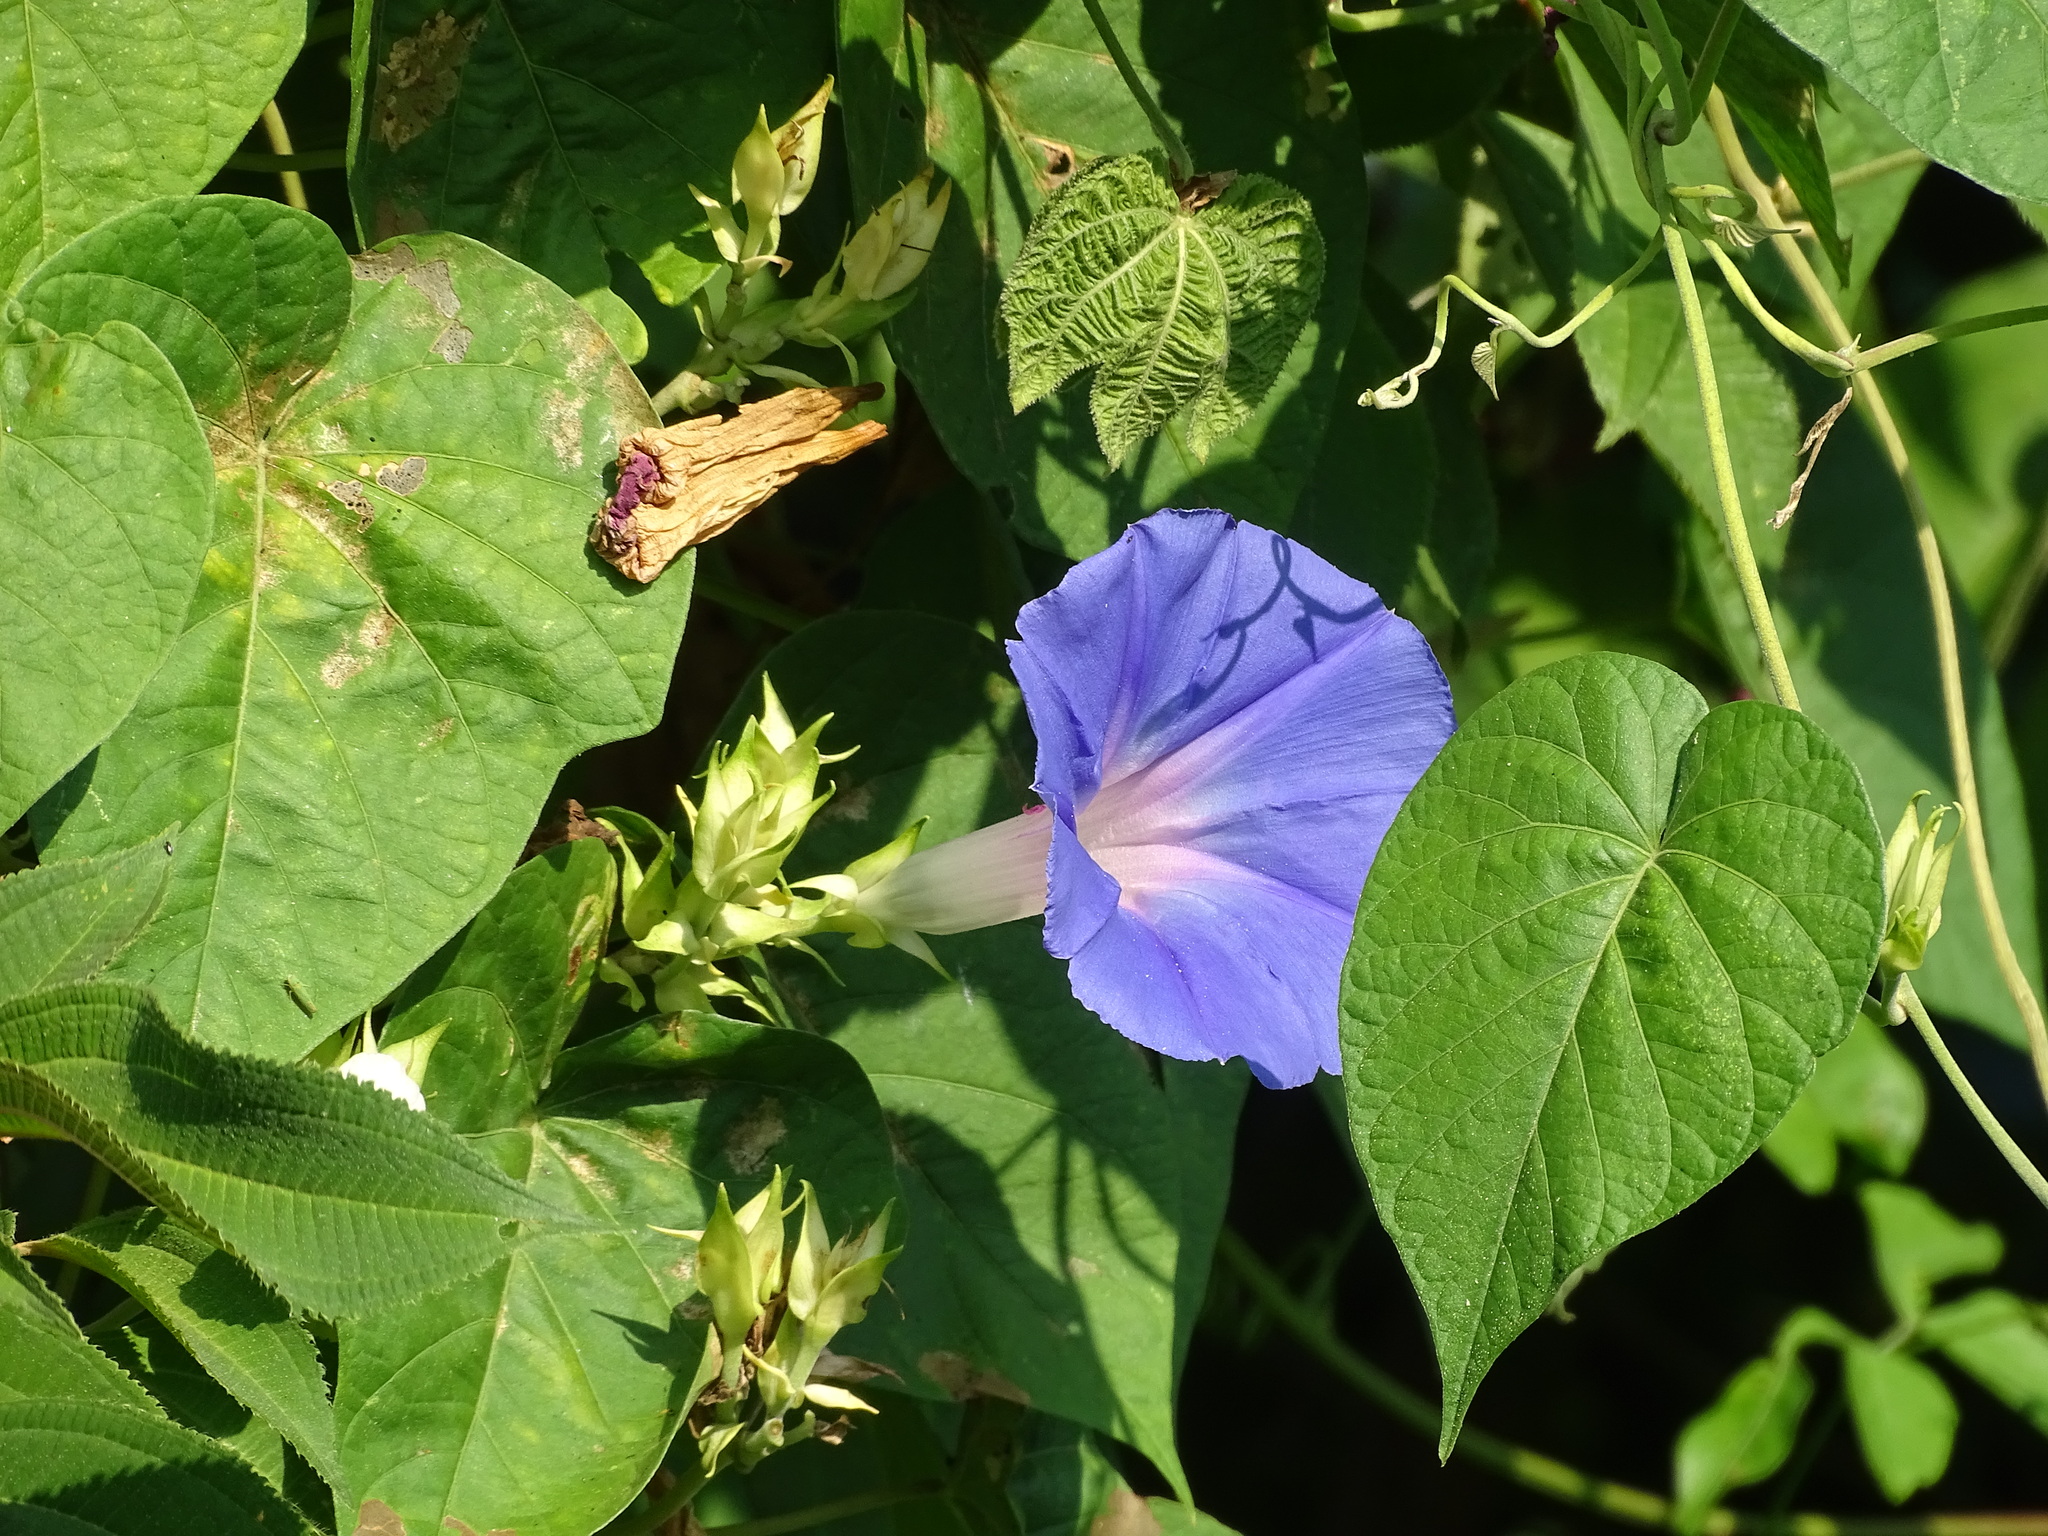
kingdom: Plantae
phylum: Tracheophyta
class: Magnoliopsida
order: Solanales
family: Convolvulaceae
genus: Ipomoea
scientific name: Ipomoea indica
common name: Blue dawnflower
